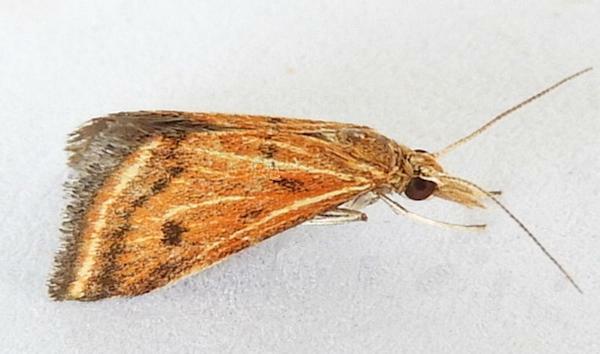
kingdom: Animalia
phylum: Arthropoda
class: Insecta
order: Lepidoptera
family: Crambidae
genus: Microtheoris
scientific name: Microtheoris ophionalis
